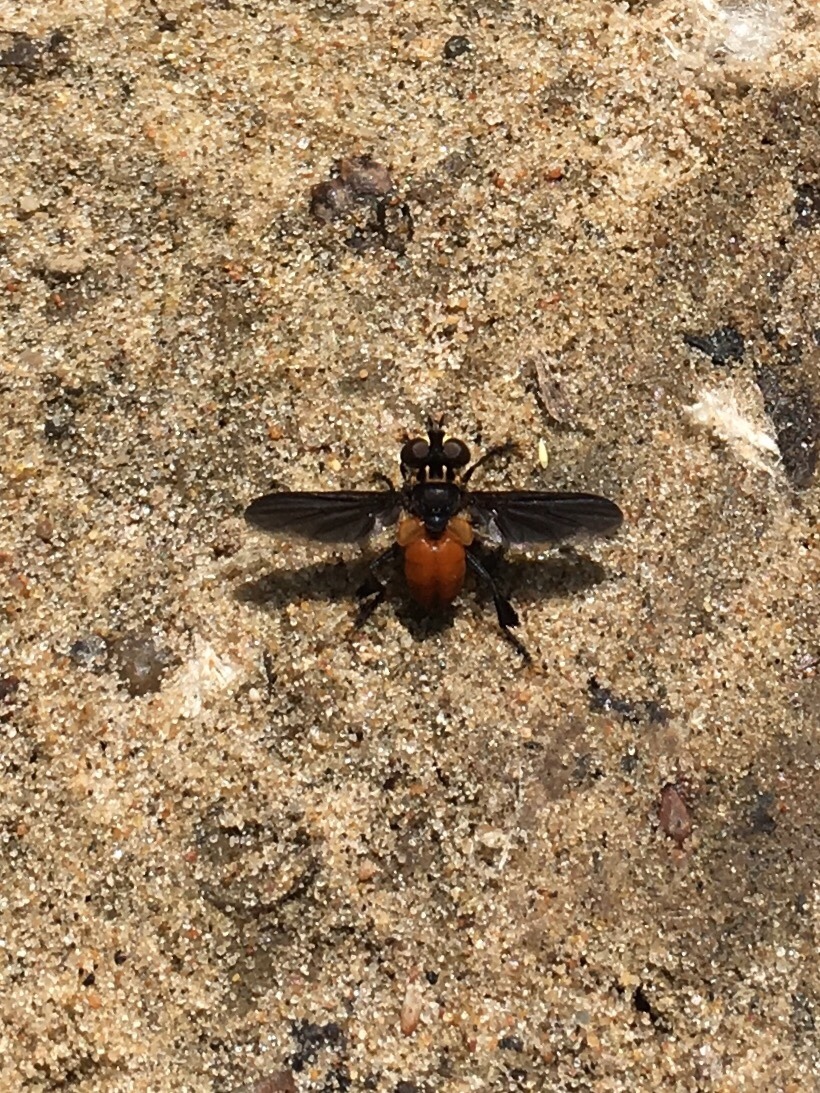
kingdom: Animalia
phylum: Arthropoda
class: Insecta
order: Diptera
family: Tachinidae
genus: Trichopoda
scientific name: Trichopoda pennipes
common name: Tachinid fly
